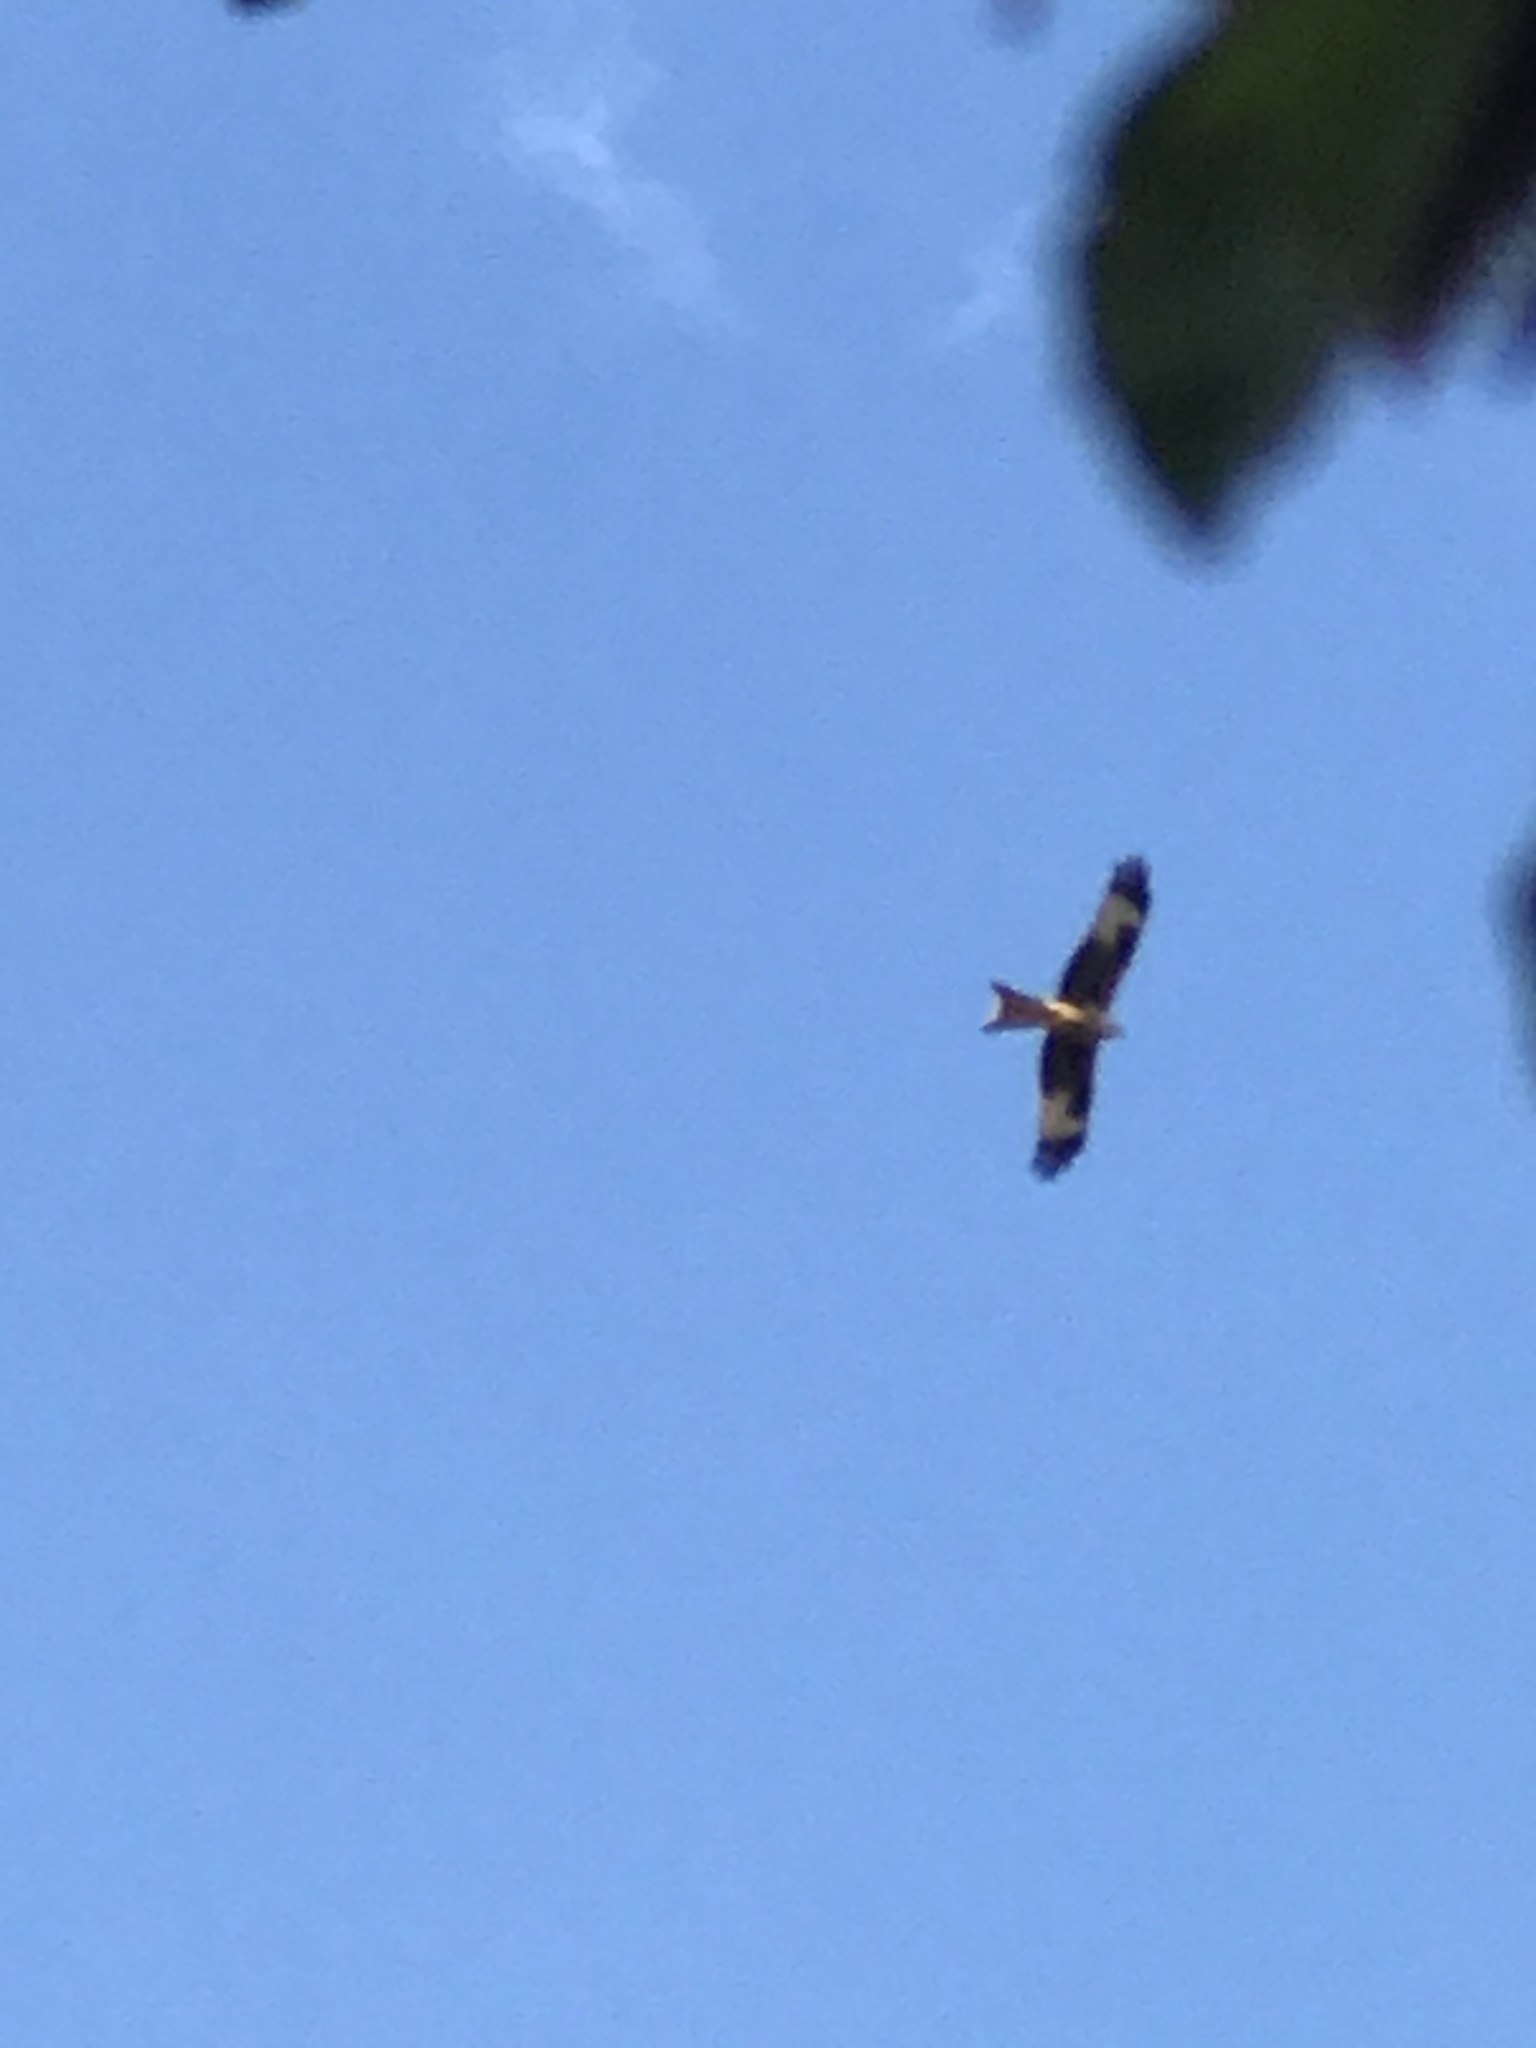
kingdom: Animalia
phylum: Chordata
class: Aves
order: Accipitriformes
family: Accipitridae
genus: Milvus
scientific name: Milvus milvus
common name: Red kite
